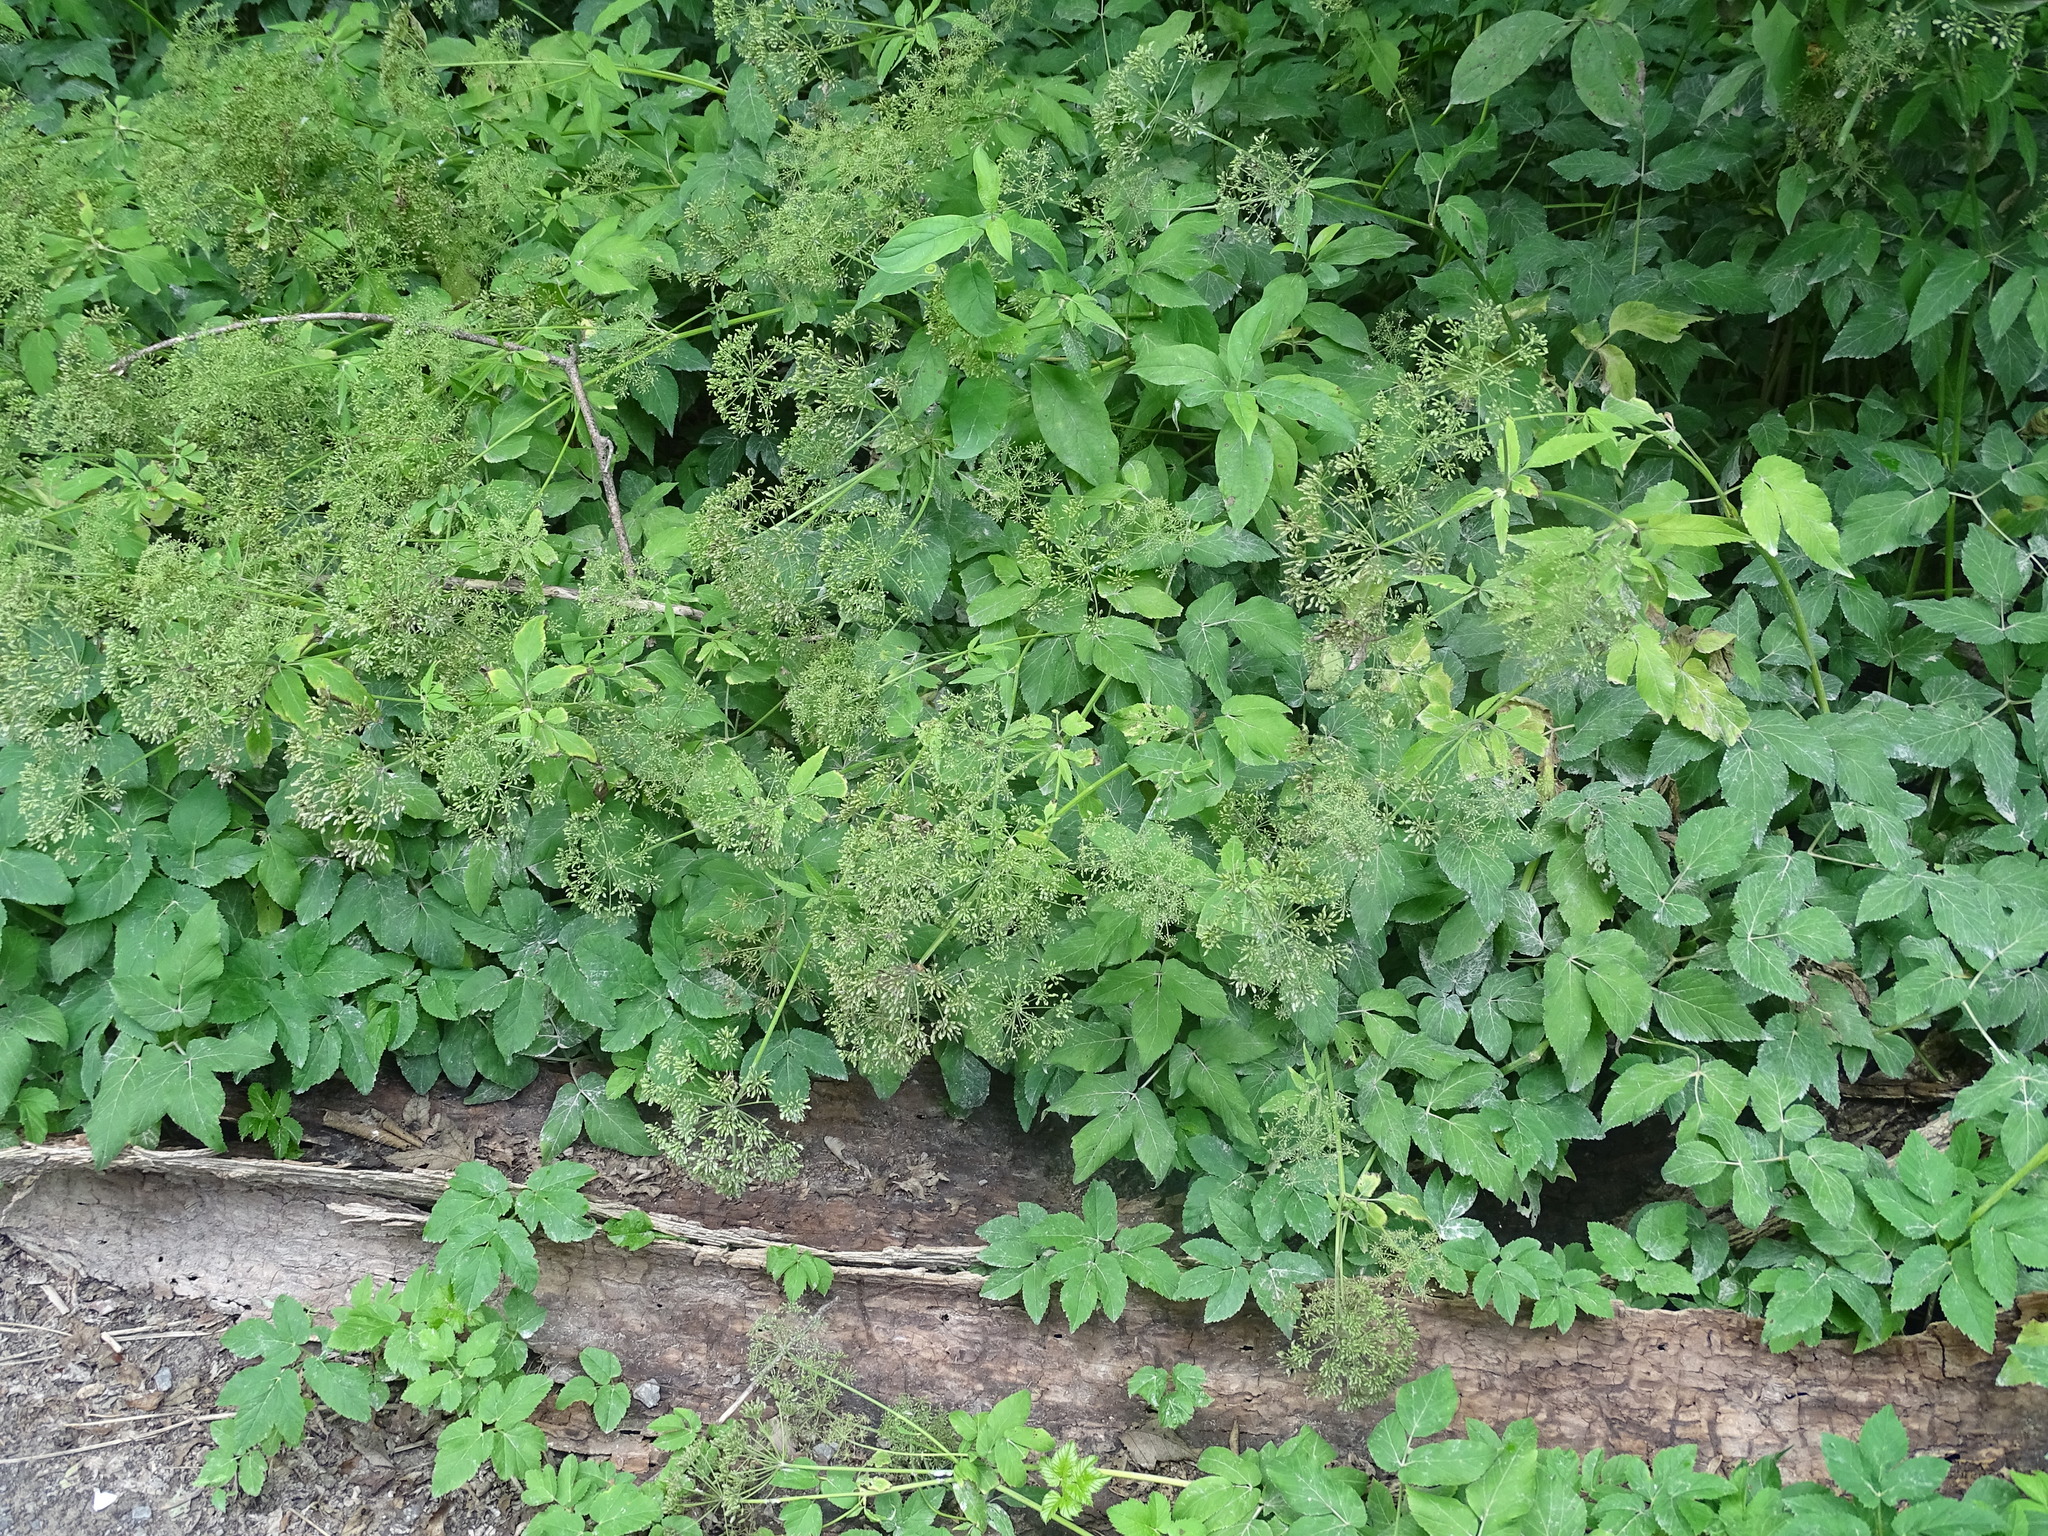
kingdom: Plantae
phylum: Tracheophyta
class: Magnoliopsida
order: Apiales
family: Apiaceae
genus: Aegopodium
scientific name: Aegopodium podagraria
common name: Ground-elder
